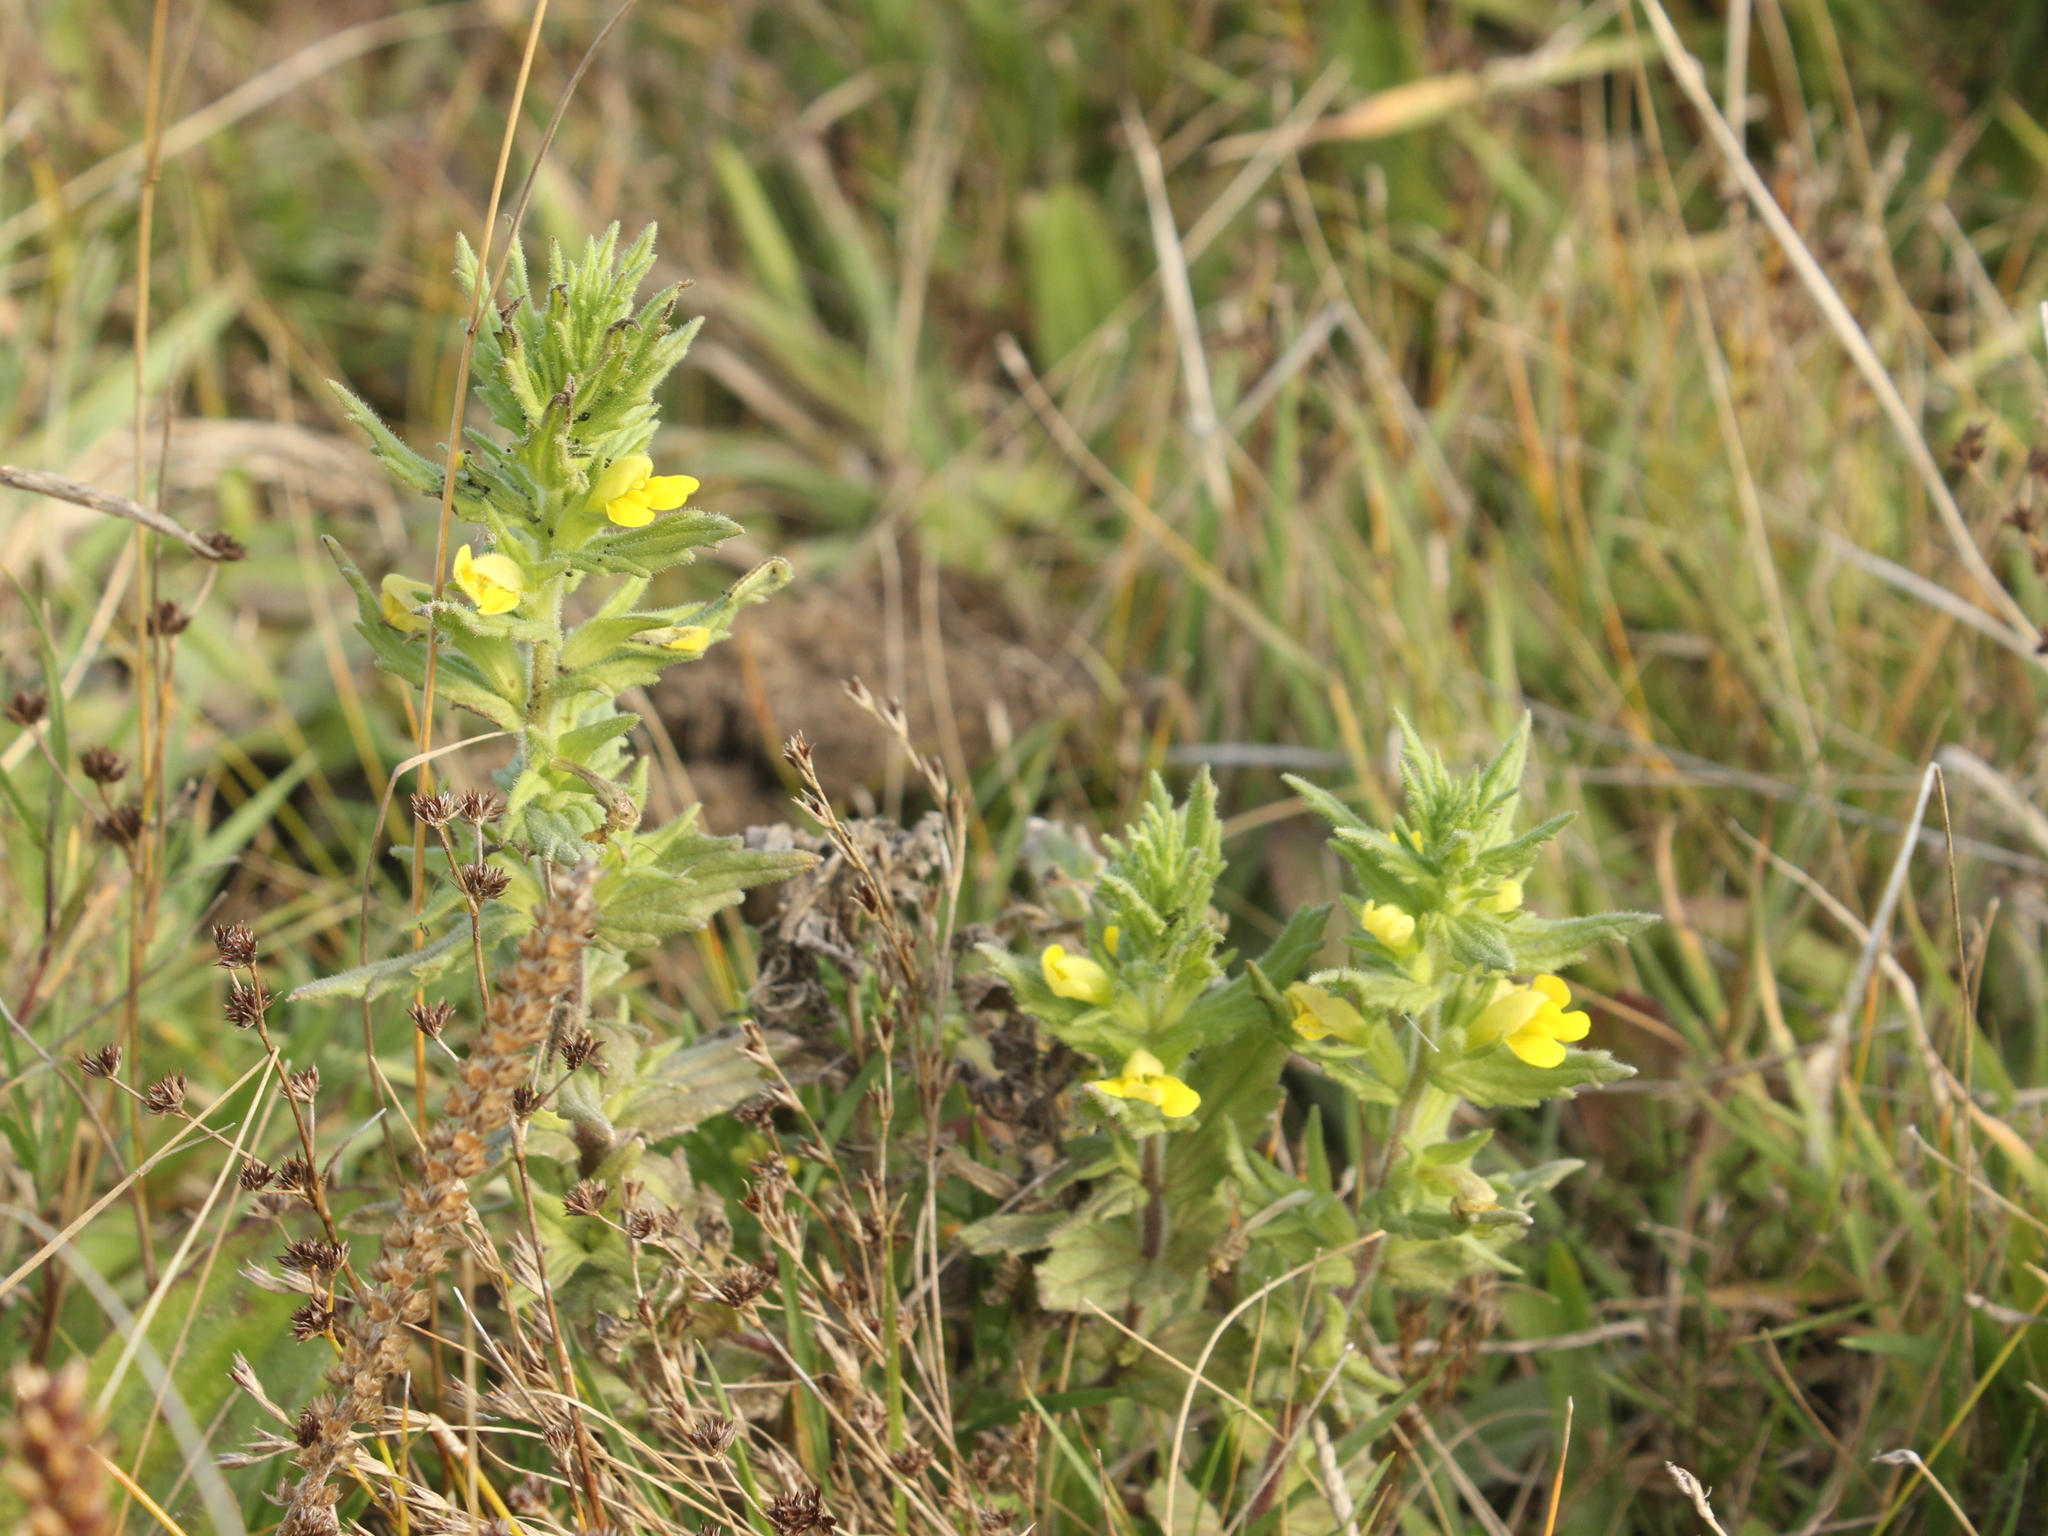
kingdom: Plantae
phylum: Tracheophyta
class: Magnoliopsida
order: Lamiales
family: Orobanchaceae
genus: Bellardia
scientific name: Bellardia viscosa
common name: Sticky parentucellia
